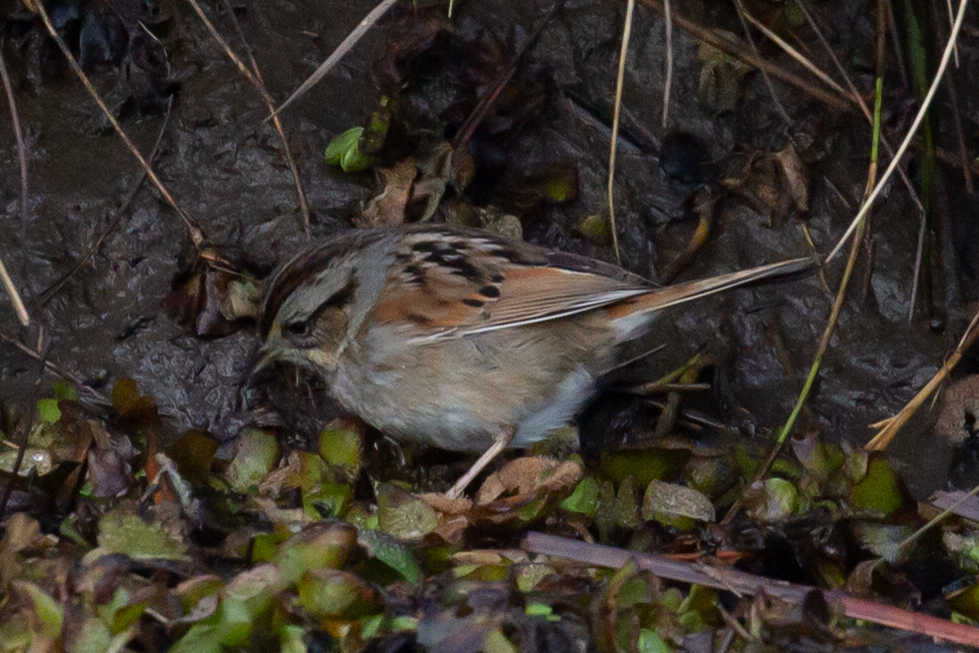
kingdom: Animalia
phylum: Chordata
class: Aves
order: Passeriformes
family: Passerellidae
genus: Melospiza
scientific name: Melospiza georgiana
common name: Swamp sparrow
